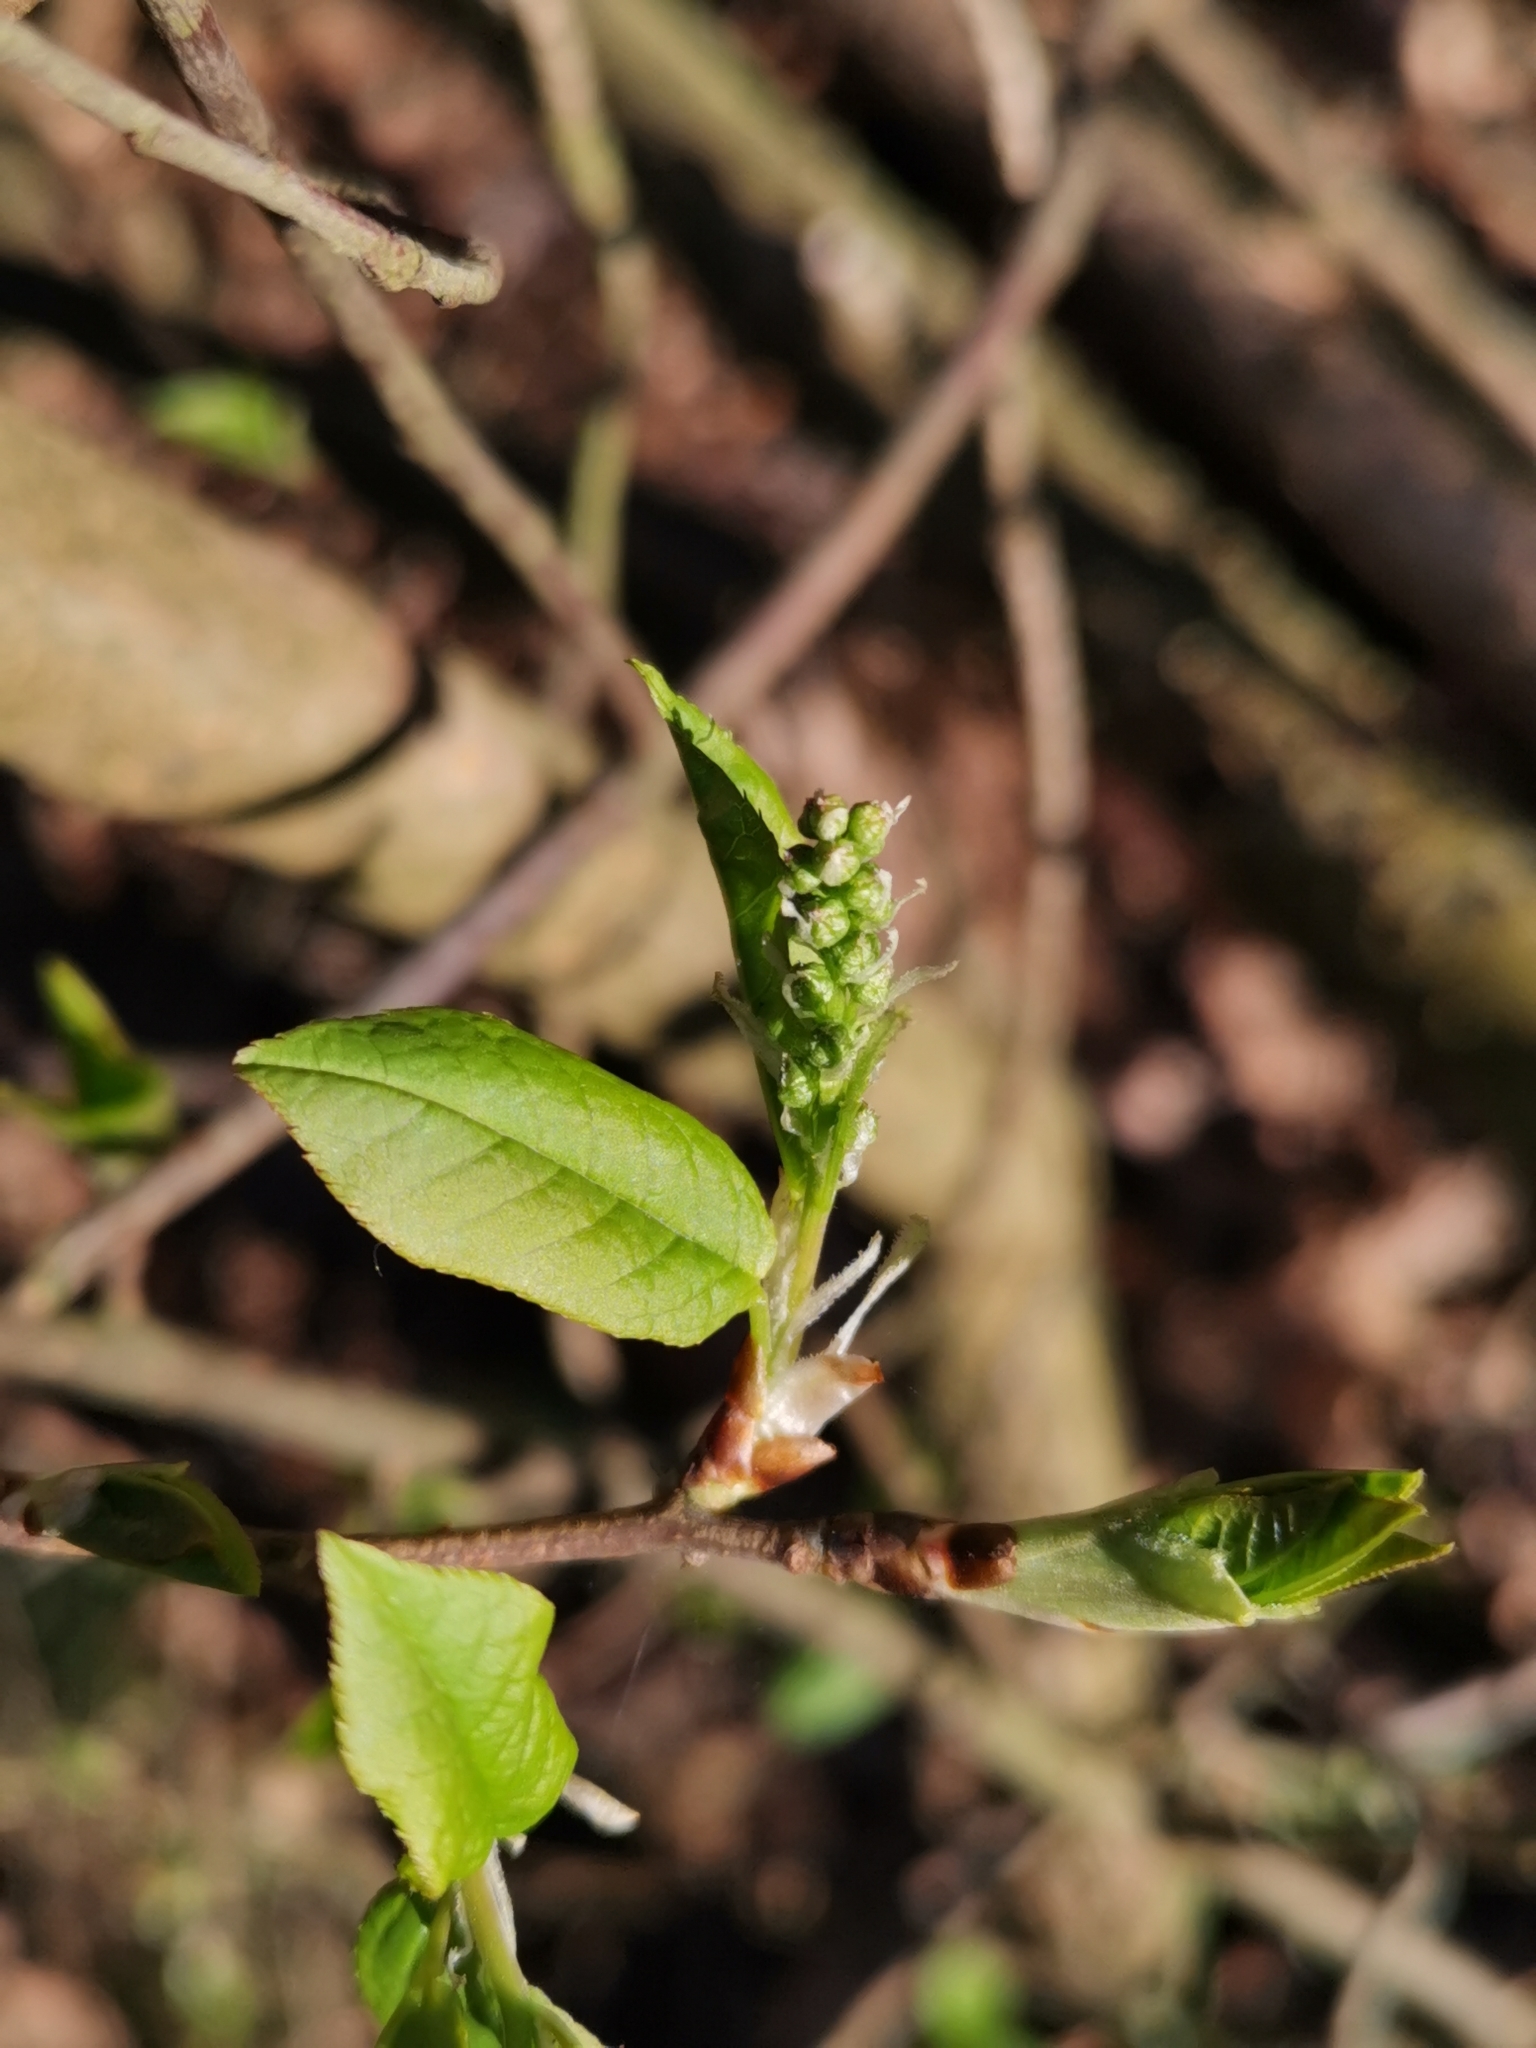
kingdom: Plantae
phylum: Tracheophyta
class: Magnoliopsida
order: Rosales
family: Rosaceae
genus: Prunus
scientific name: Prunus padus
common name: Bird cherry
